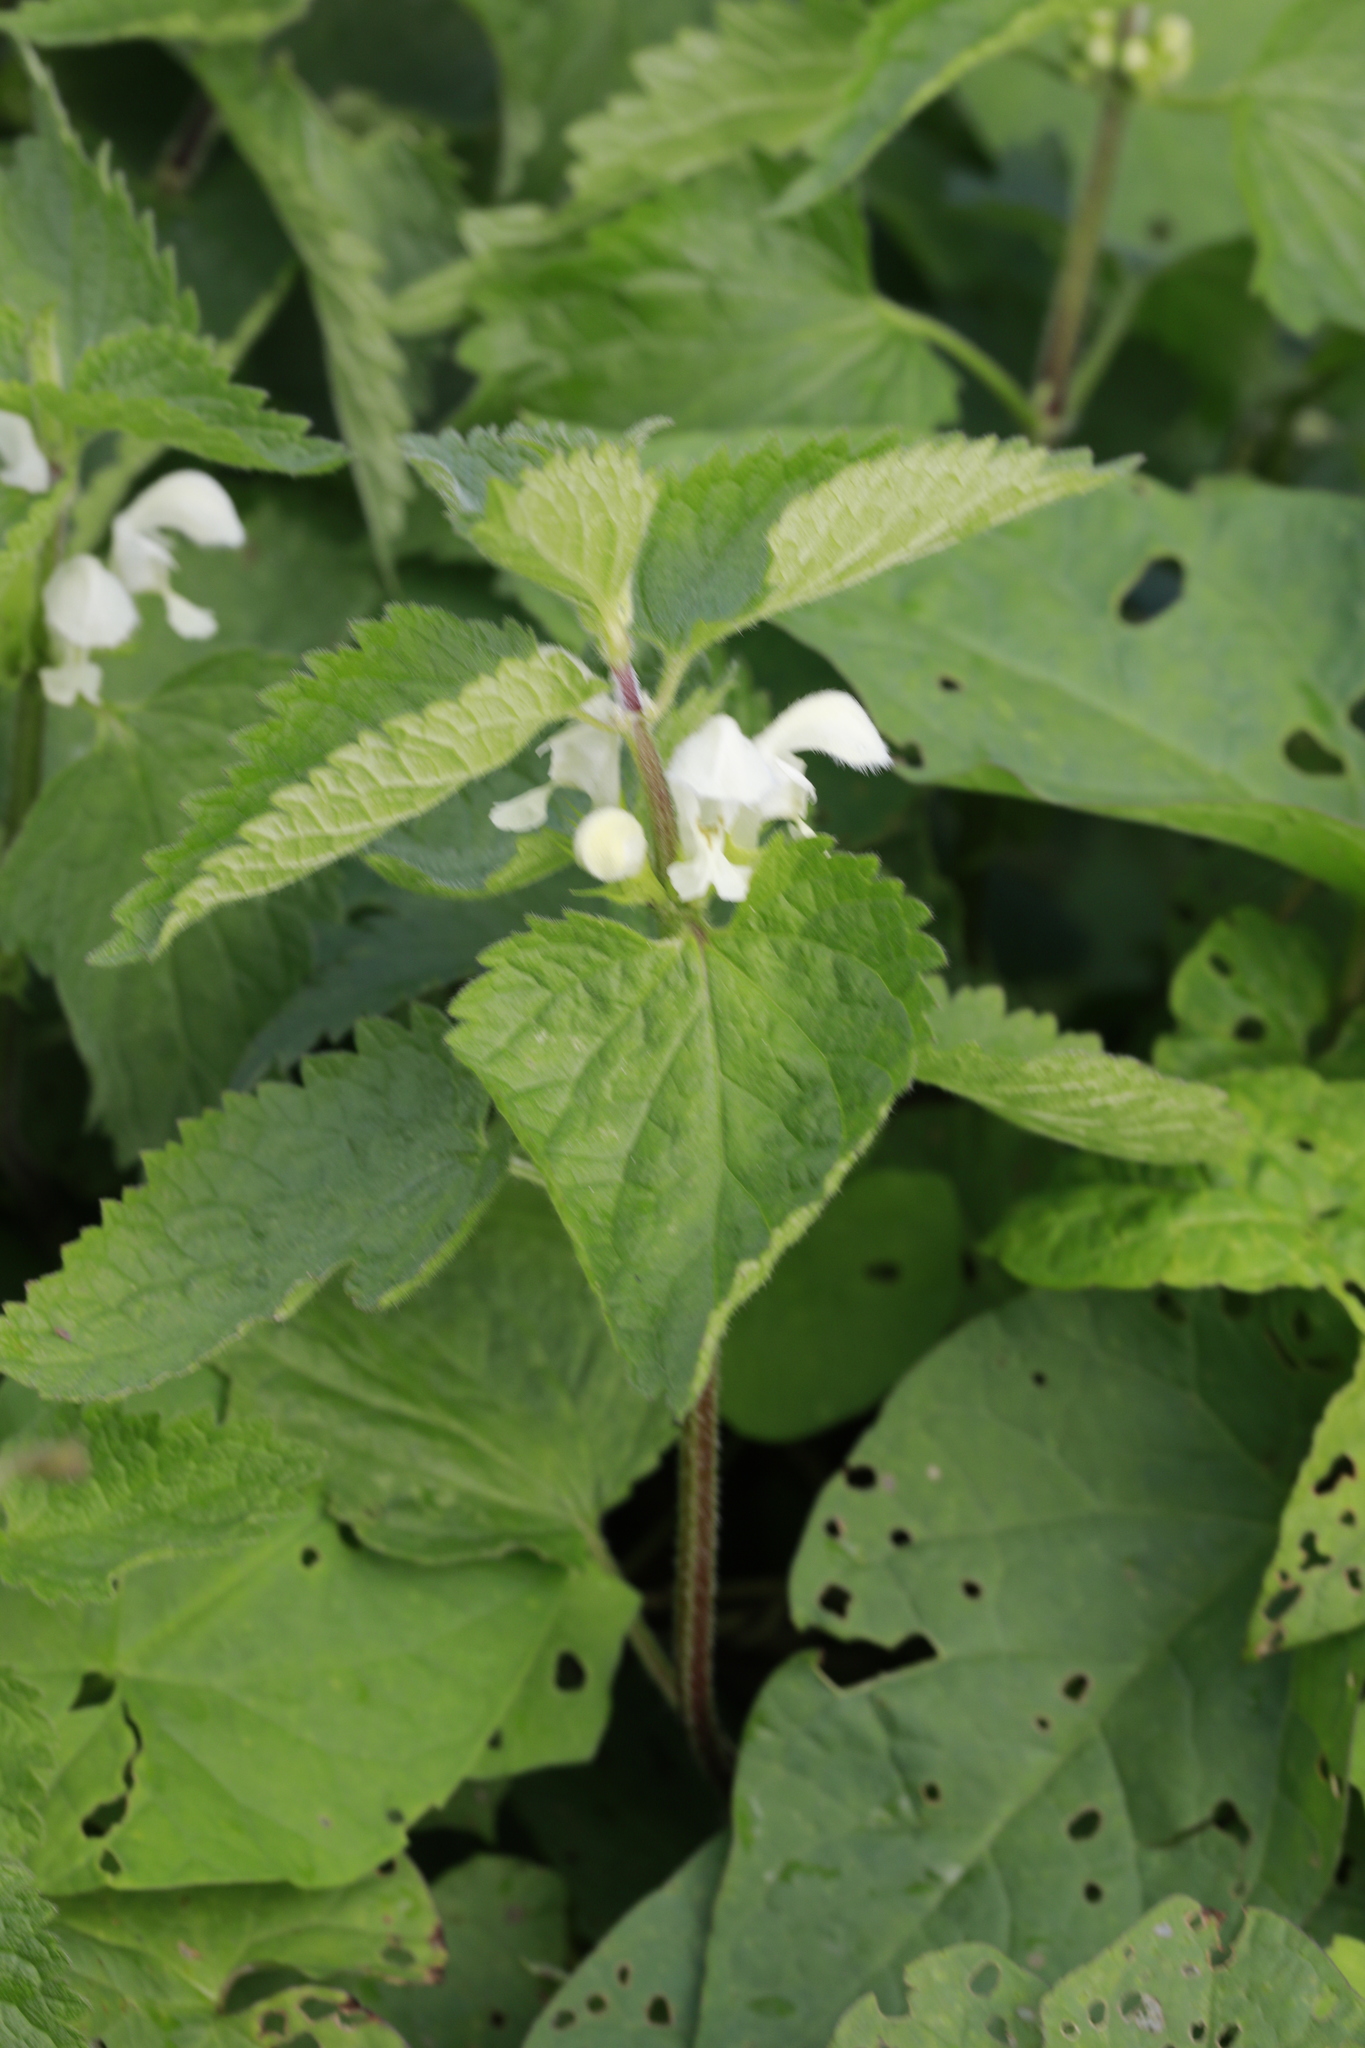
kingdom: Plantae
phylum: Tracheophyta
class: Magnoliopsida
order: Lamiales
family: Lamiaceae
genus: Lamium
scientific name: Lamium album
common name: White dead-nettle
